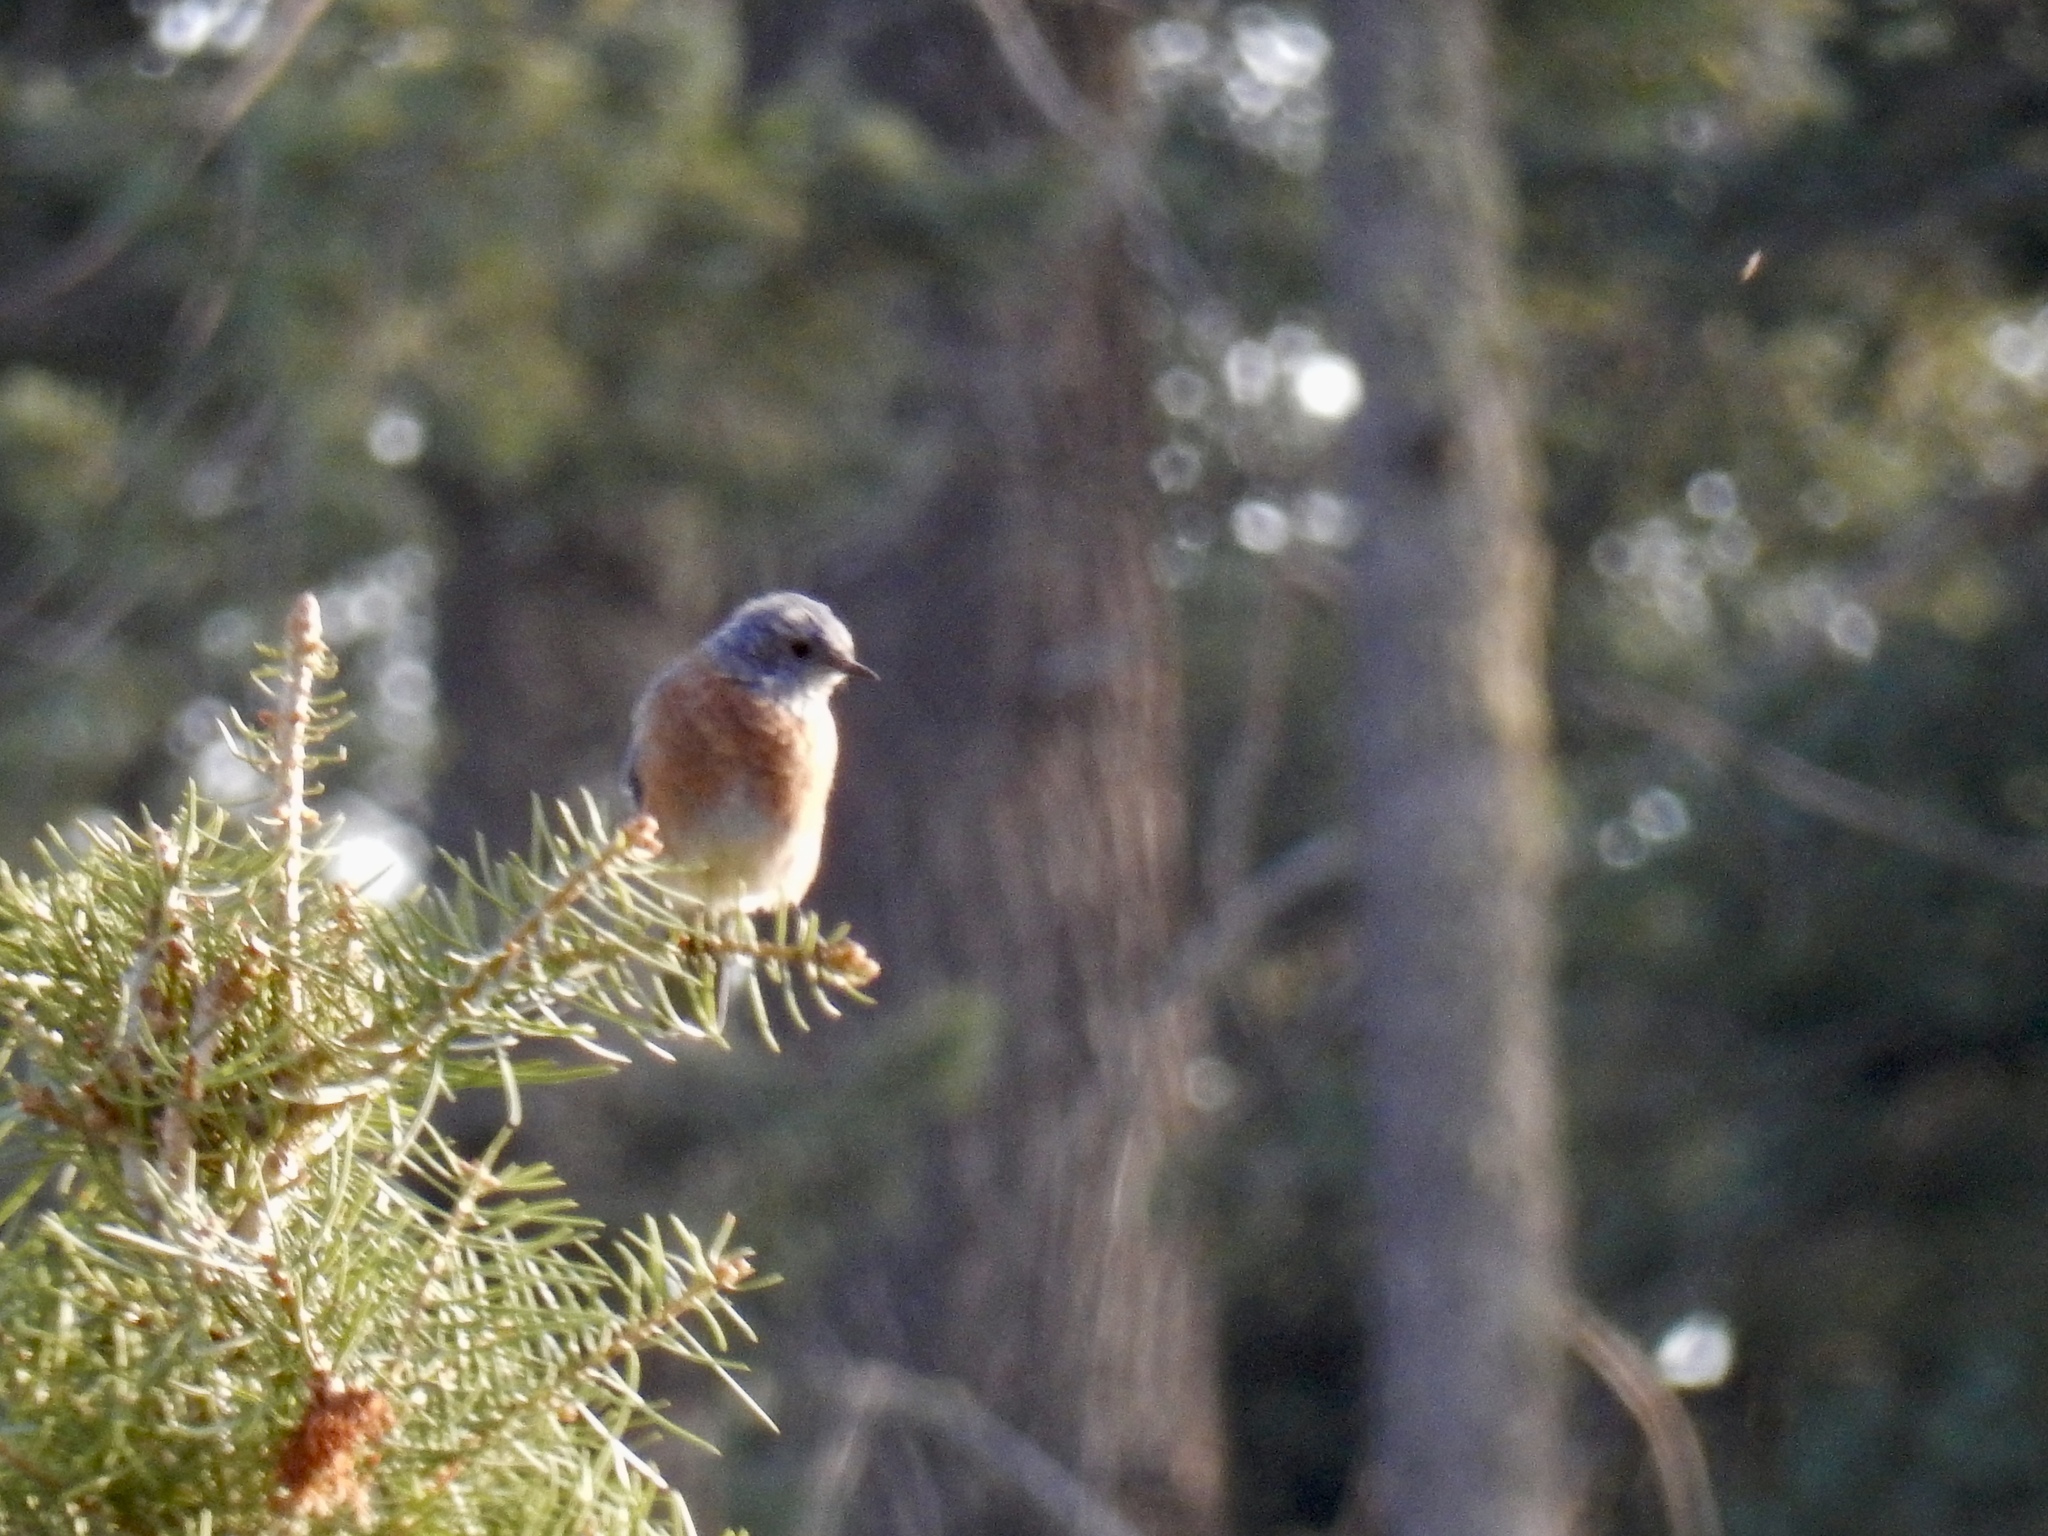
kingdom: Animalia
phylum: Chordata
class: Aves
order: Passeriformes
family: Turdidae
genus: Sialia
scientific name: Sialia mexicana
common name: Western bluebird
